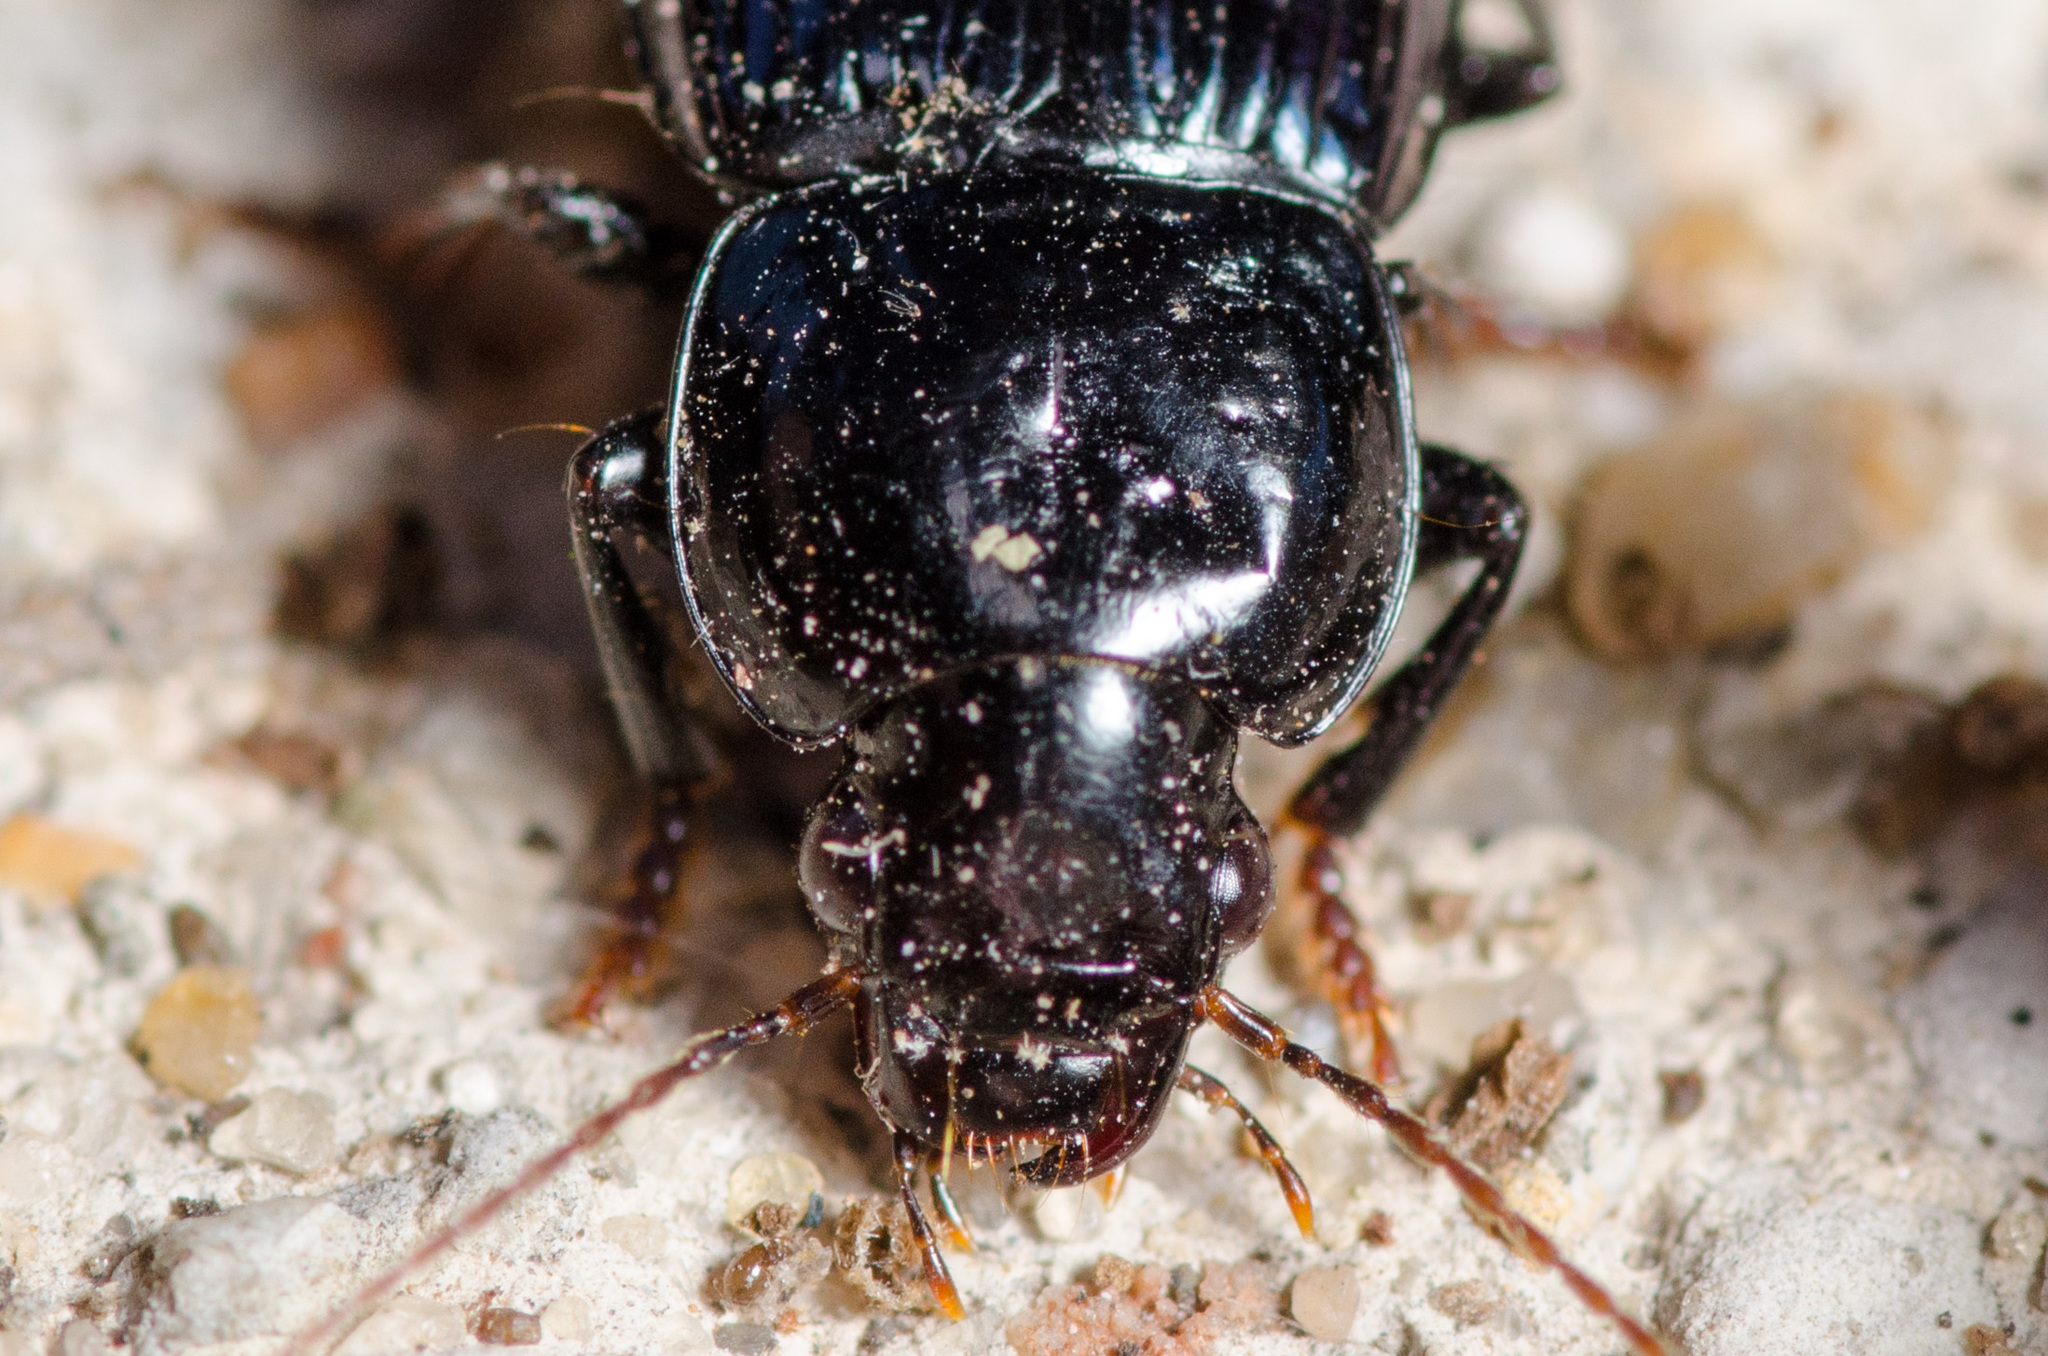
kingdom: Animalia
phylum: Arthropoda
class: Insecta
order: Coleoptera
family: Carabidae
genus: Aztecarpalus
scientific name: Aztecarpalus schaefferi
